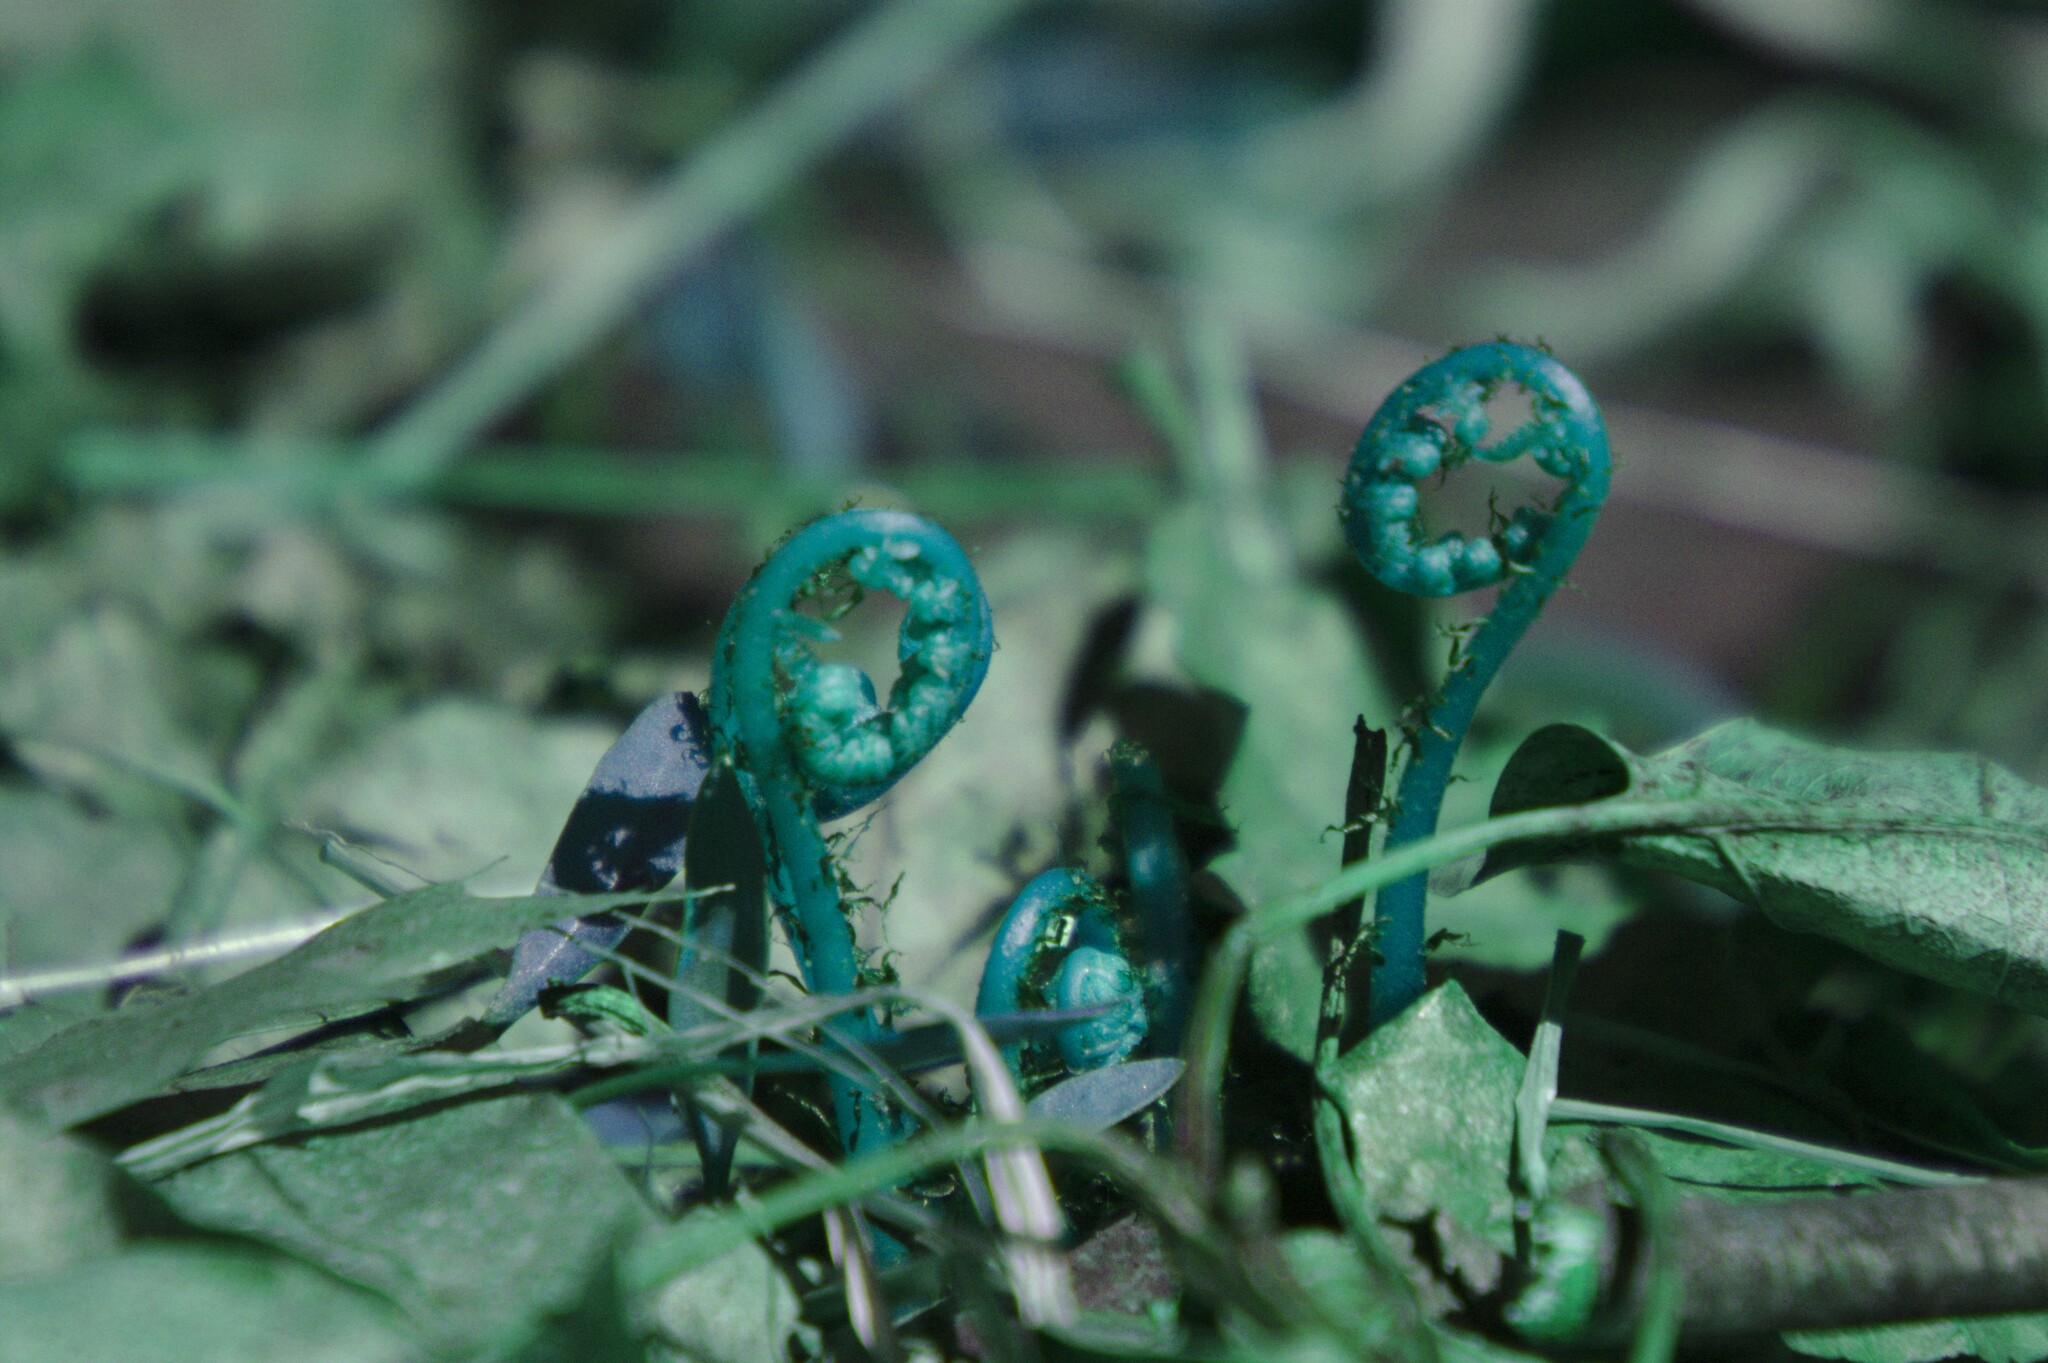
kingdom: Plantae
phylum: Tracheophyta
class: Polypodiopsida
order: Polypodiales
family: Athyriaceae
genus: Athyrium
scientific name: Athyrium angustum
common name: Northern lady fern
